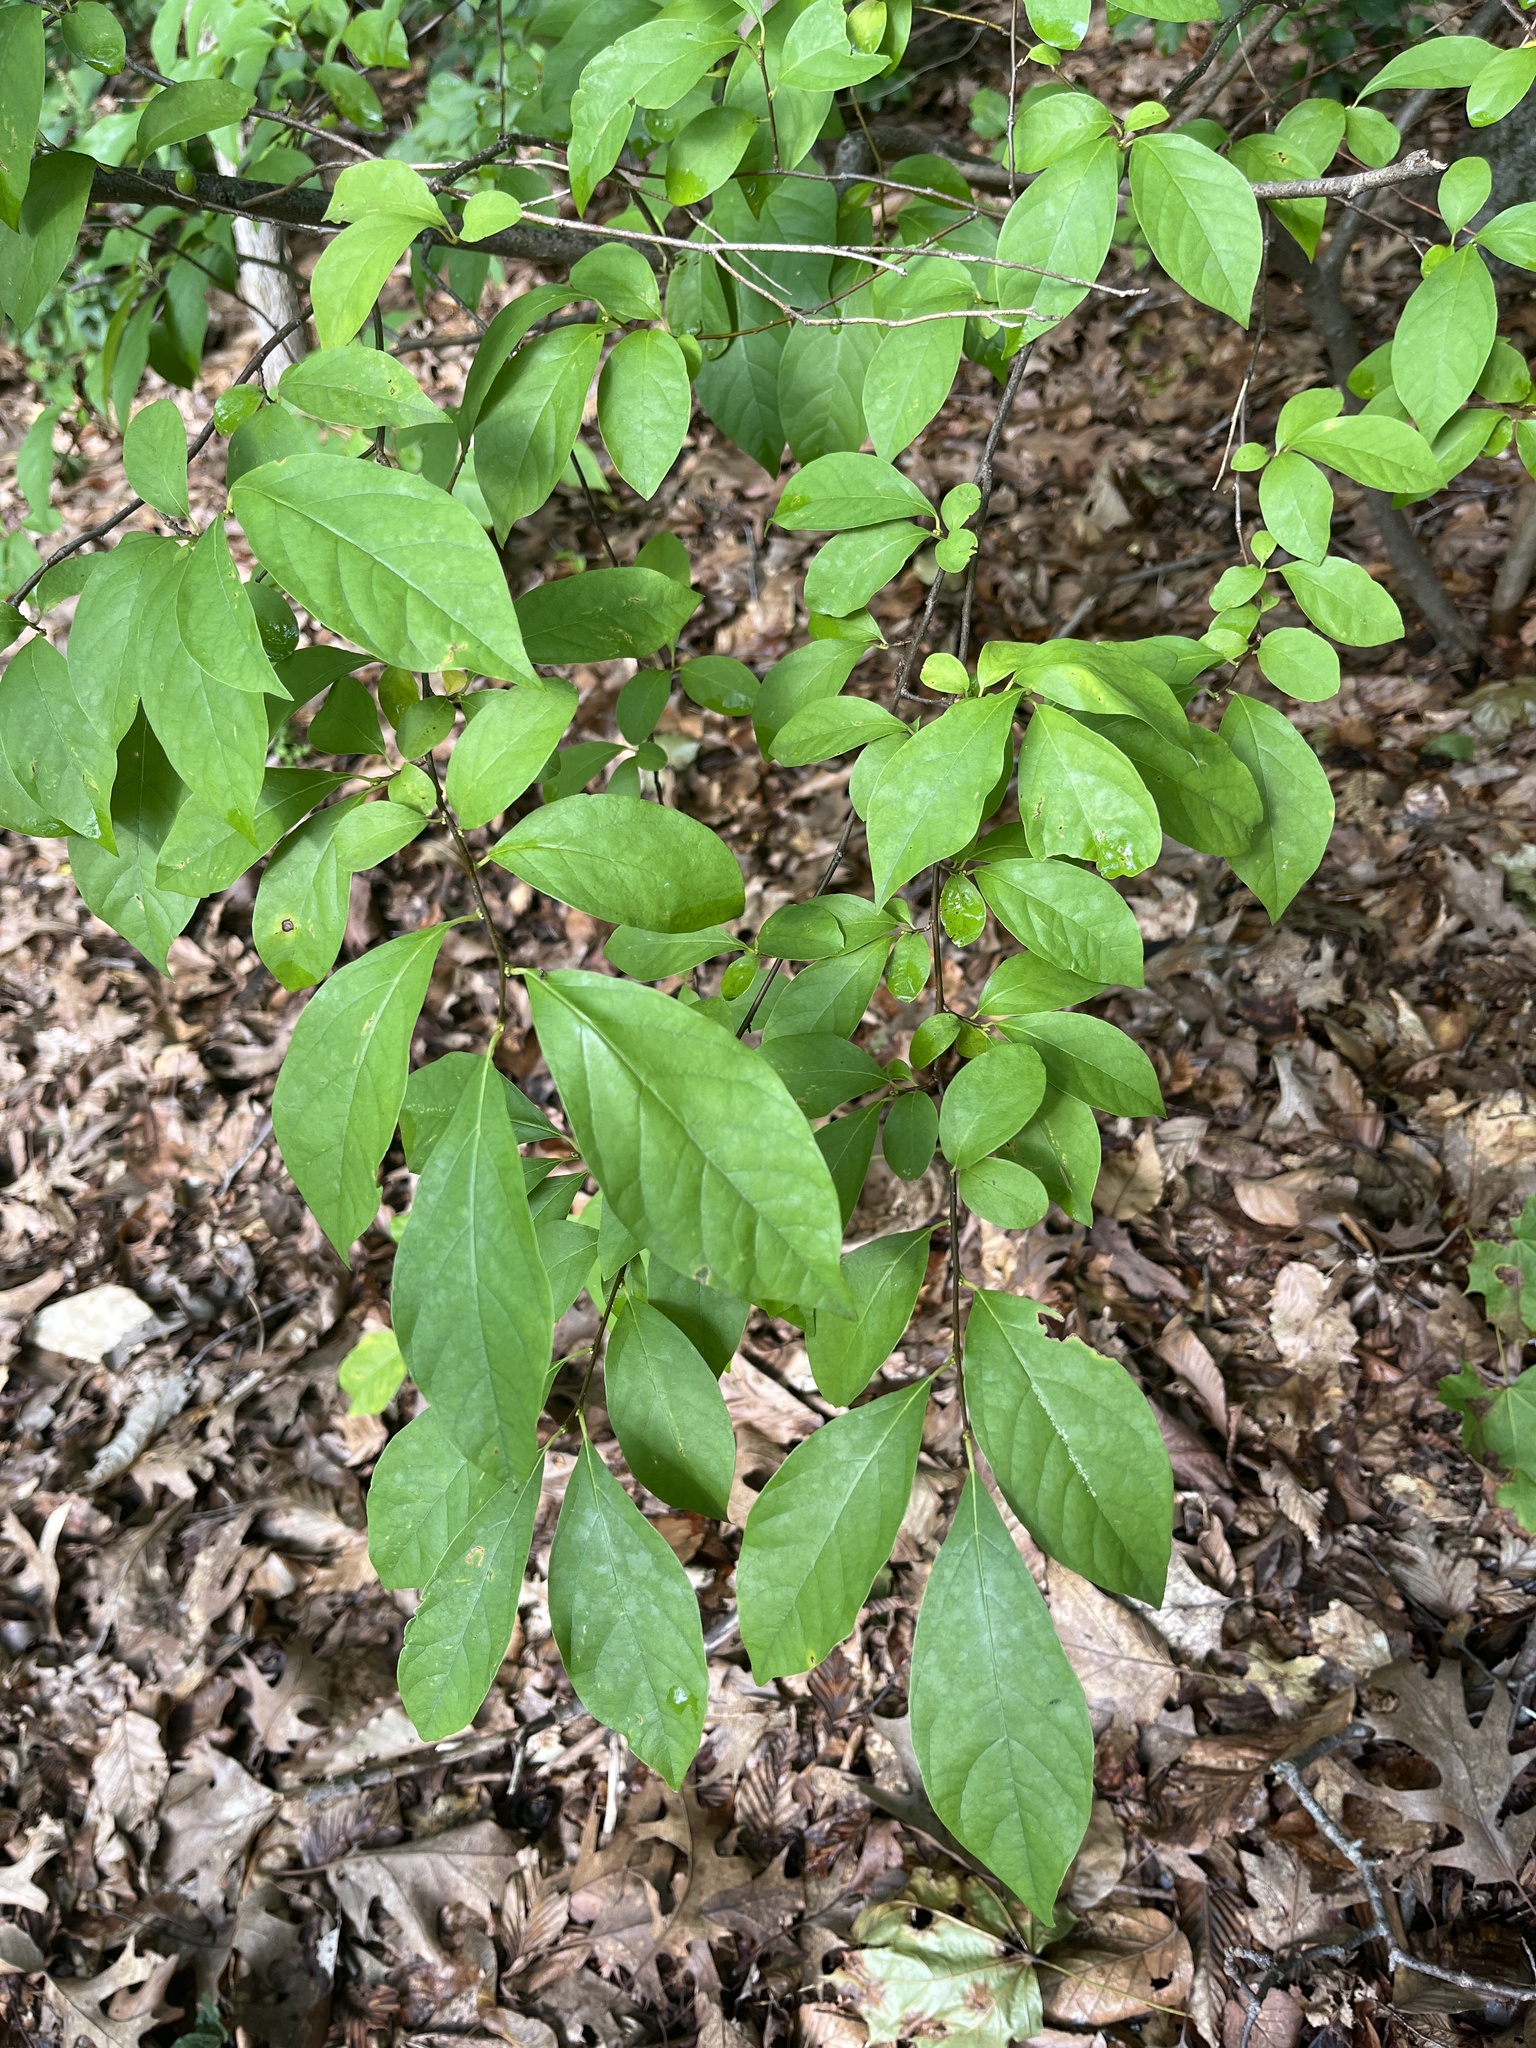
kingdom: Plantae
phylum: Tracheophyta
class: Magnoliopsida
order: Laurales
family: Lauraceae
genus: Lindera
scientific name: Lindera benzoin
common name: Spicebush
